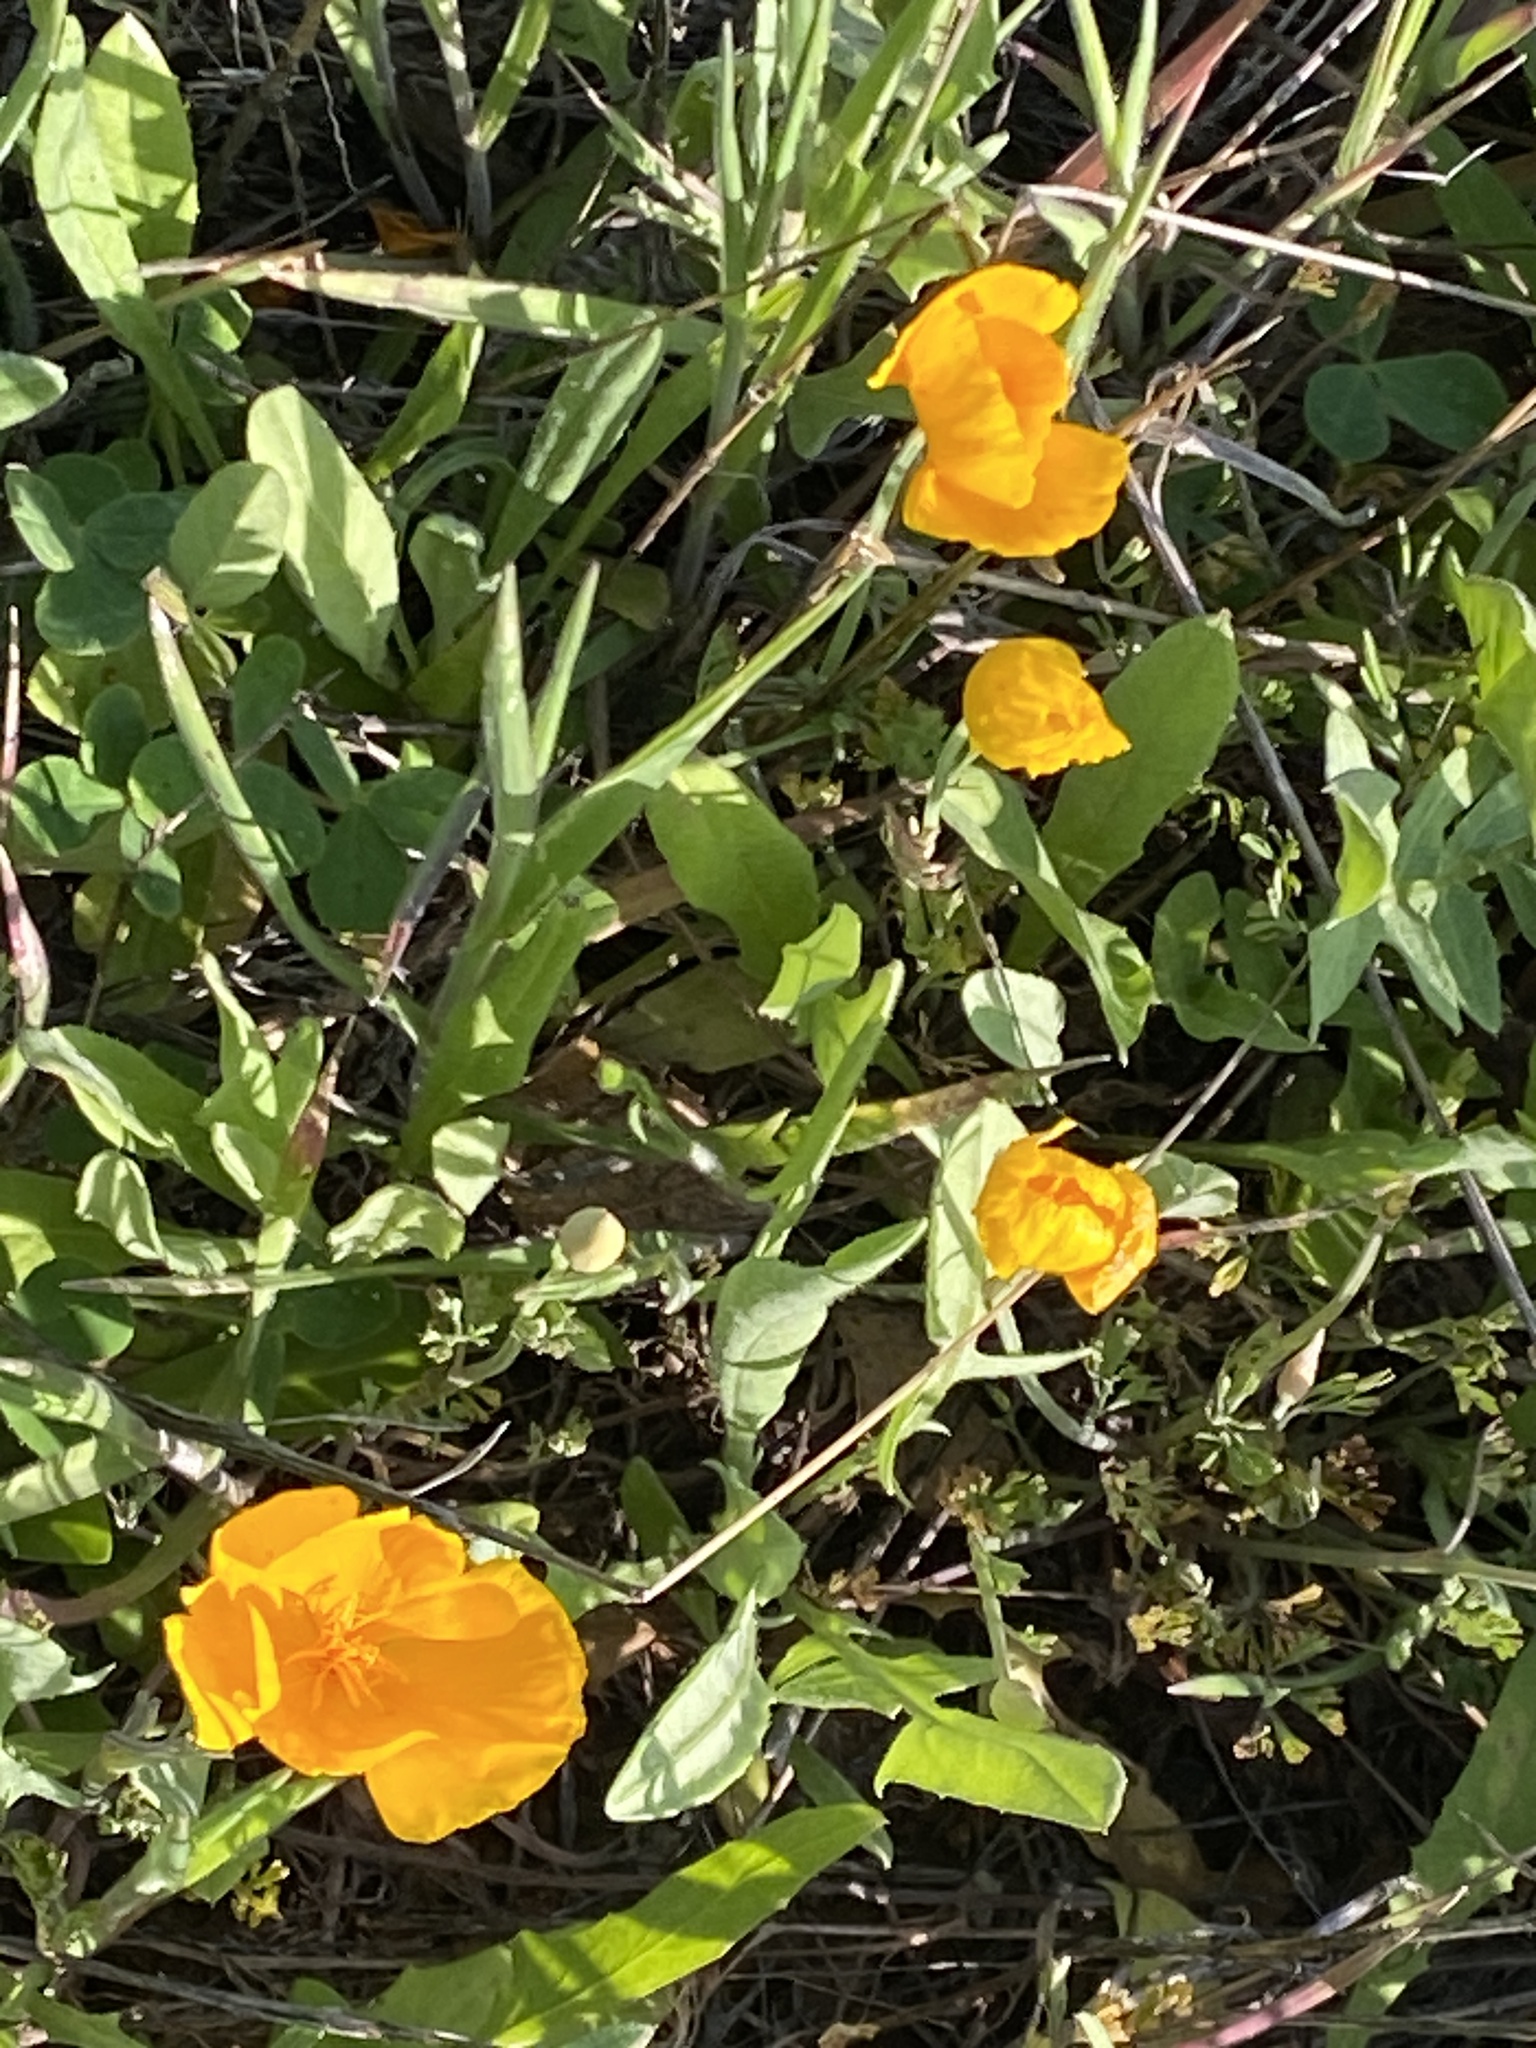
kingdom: Plantae
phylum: Tracheophyta
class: Magnoliopsida
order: Ranunculales
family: Papaveraceae
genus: Eschscholzia
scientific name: Eschscholzia lobbii
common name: Frying-pans
